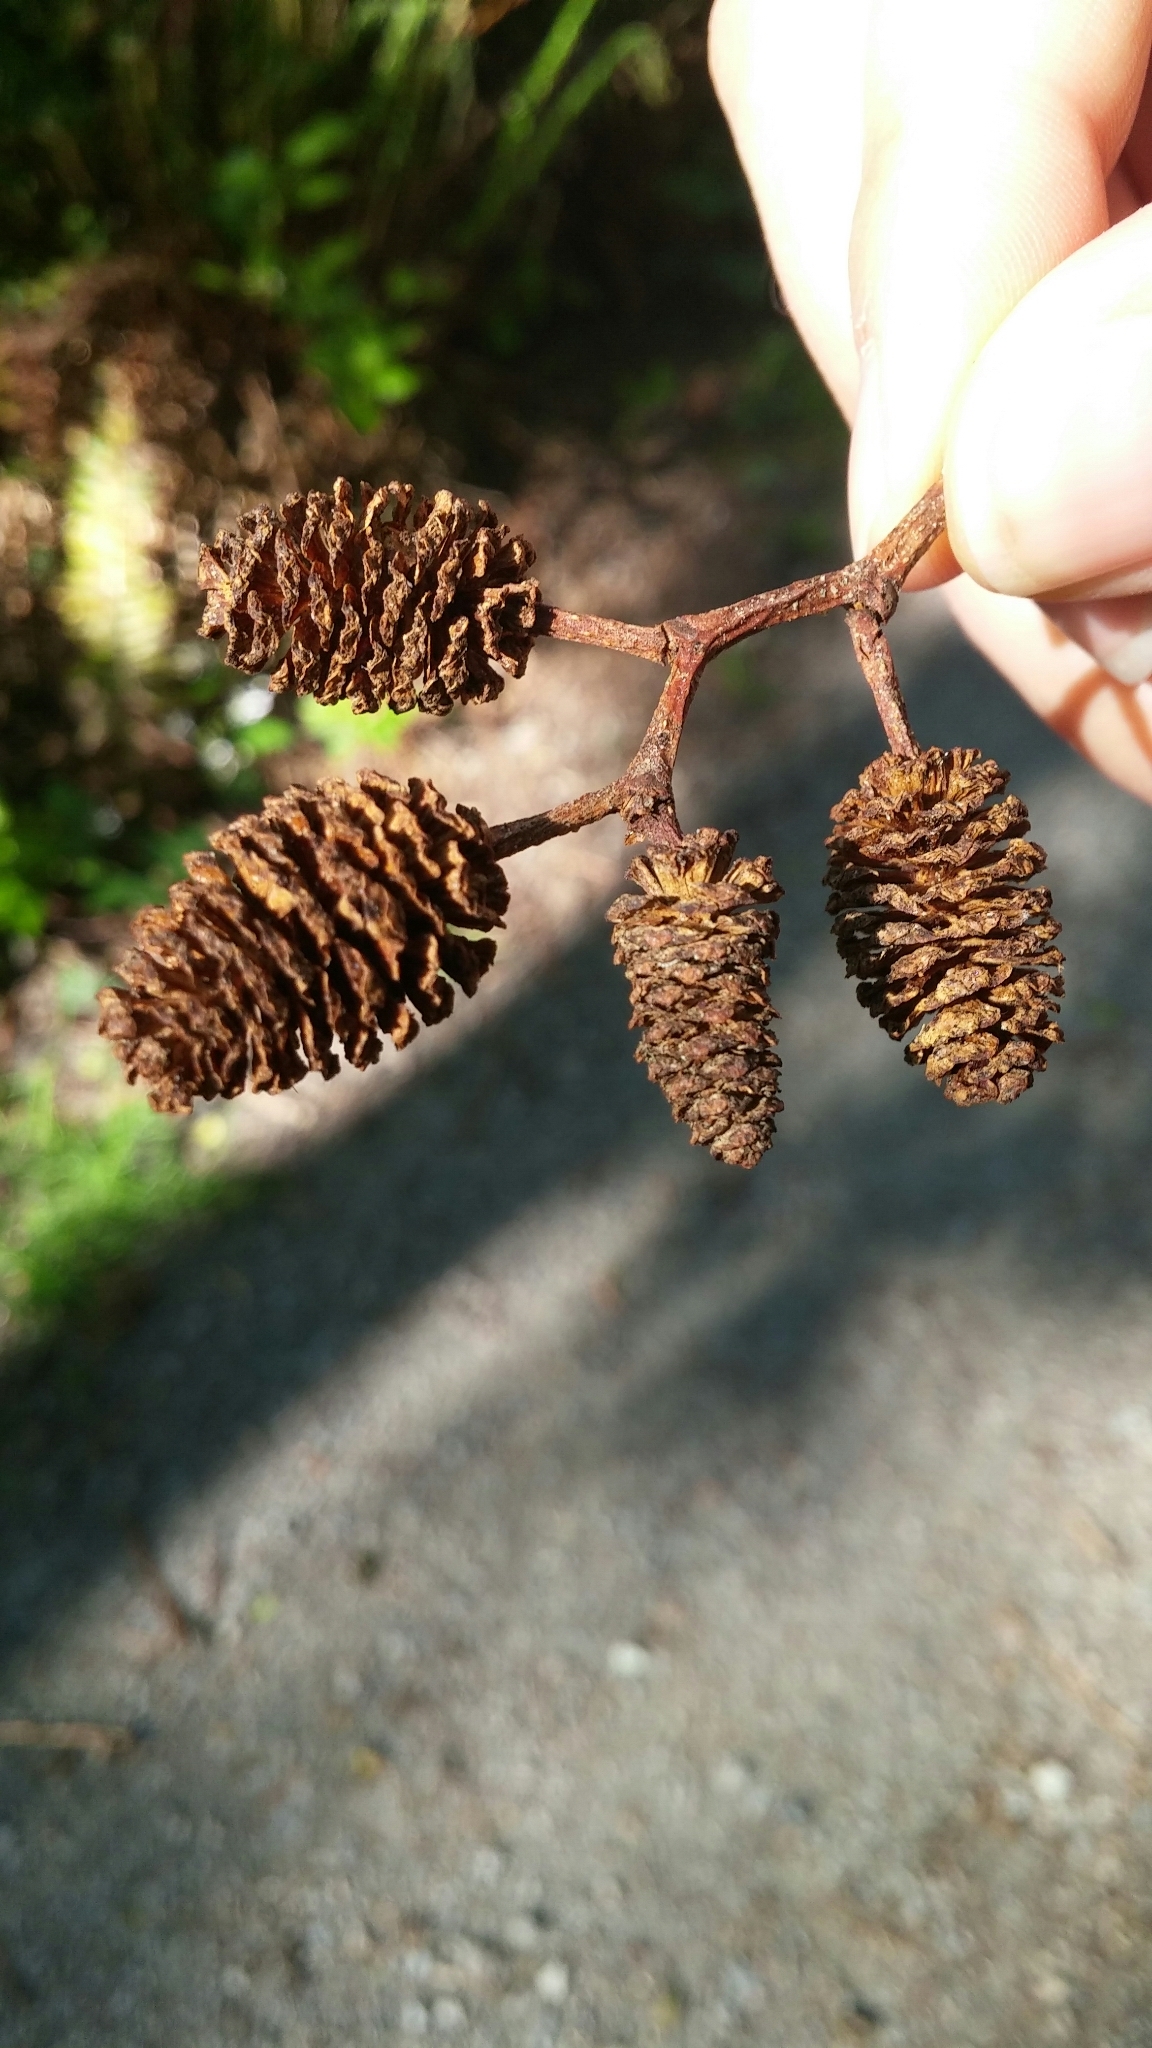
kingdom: Plantae
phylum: Tracheophyta
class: Magnoliopsida
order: Fagales
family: Betulaceae
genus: Alnus
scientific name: Alnus rubra
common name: Red alder
